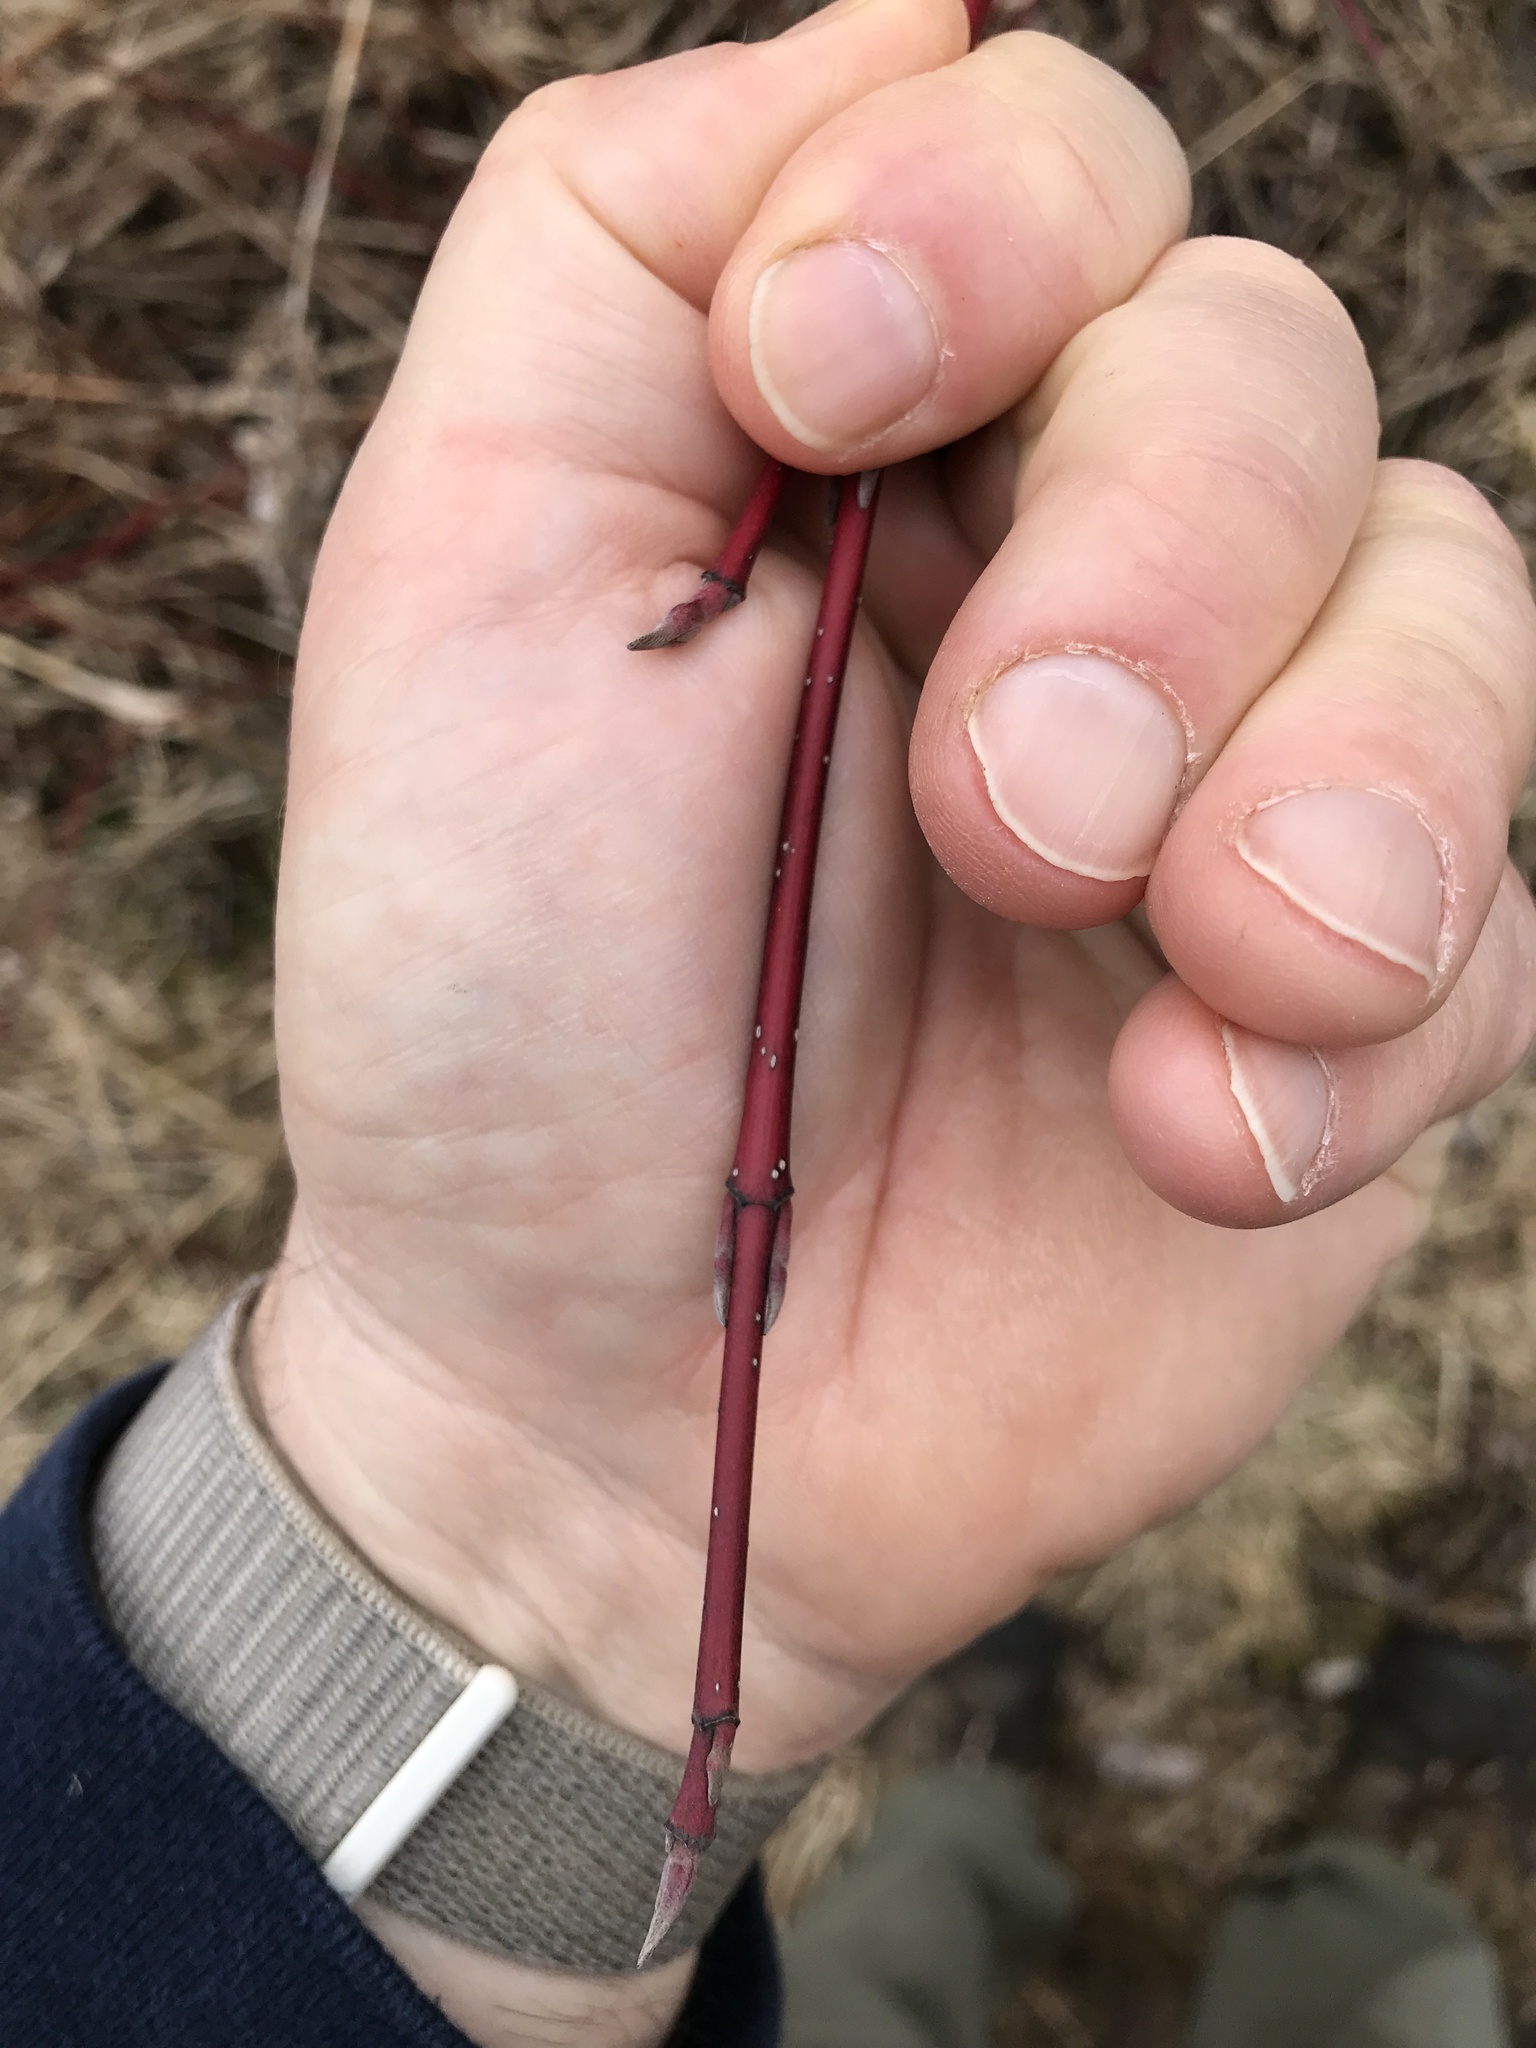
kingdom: Plantae
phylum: Tracheophyta
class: Magnoliopsida
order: Cornales
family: Cornaceae
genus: Cornus
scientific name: Cornus sericea
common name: Red-osier dogwood
